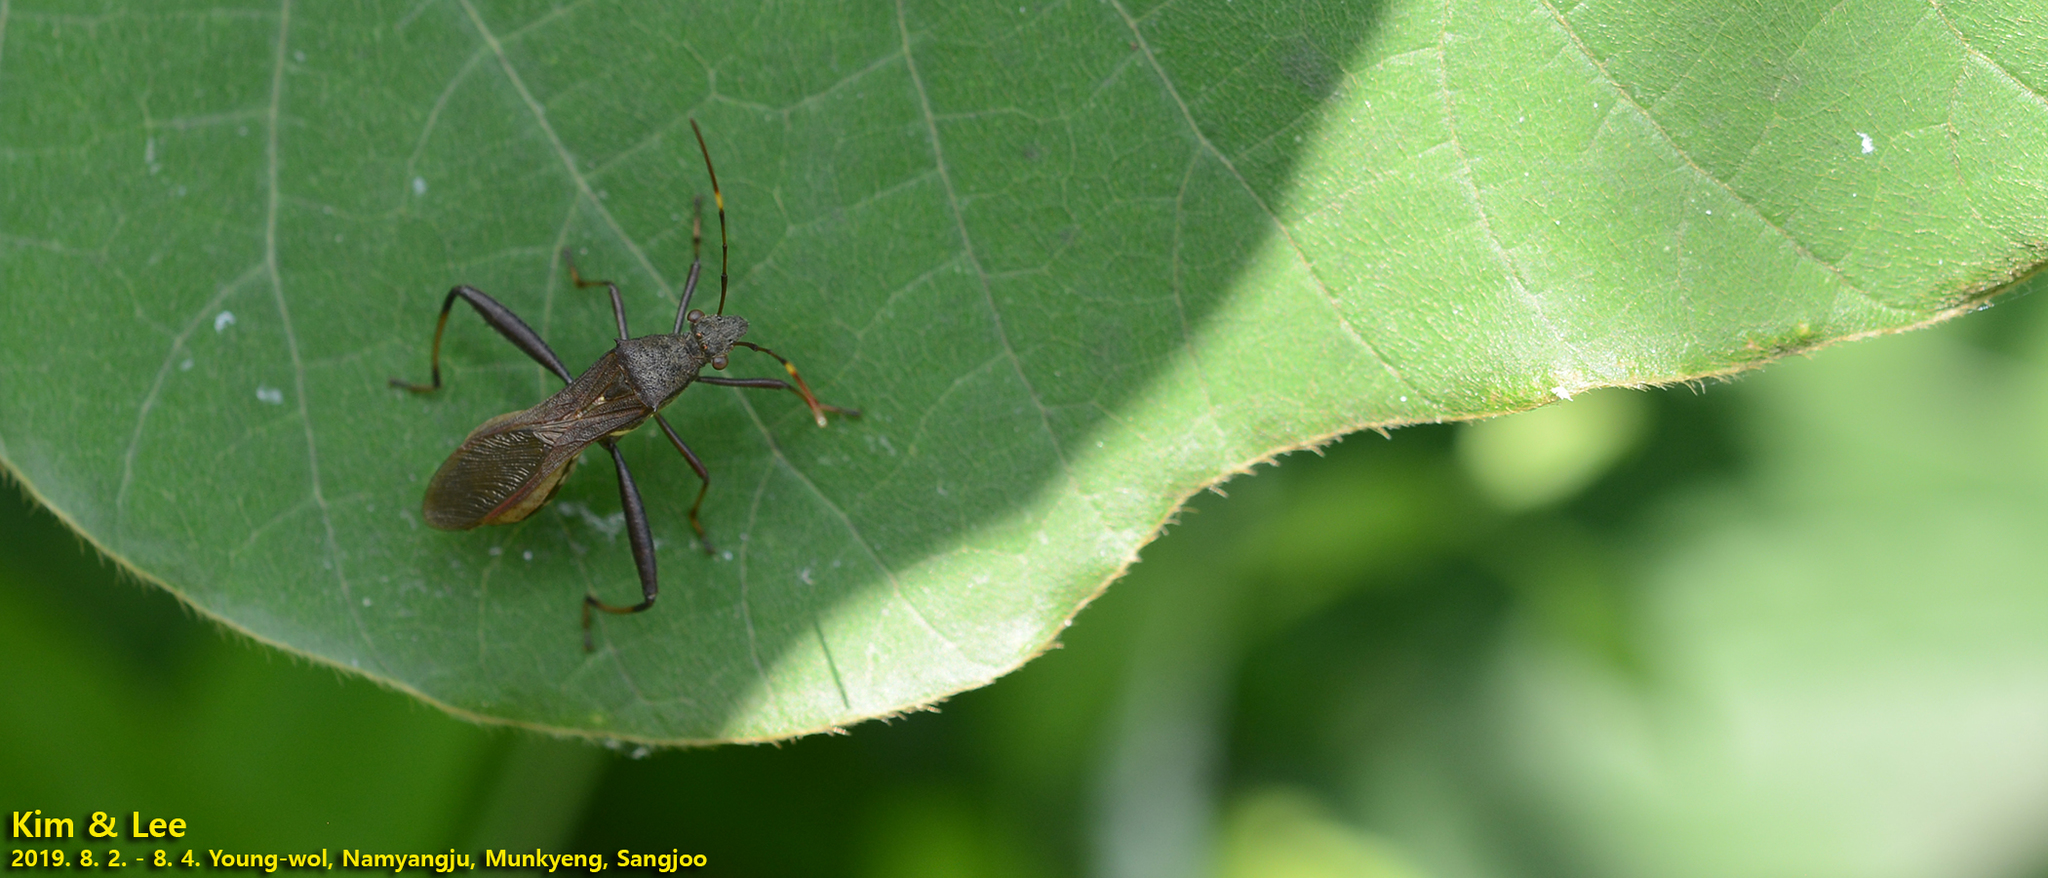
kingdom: Animalia
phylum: Arthropoda
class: Insecta
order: Hemiptera
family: Alydidae
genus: Riptortus
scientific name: Riptortus pedestris
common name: Bean bug
